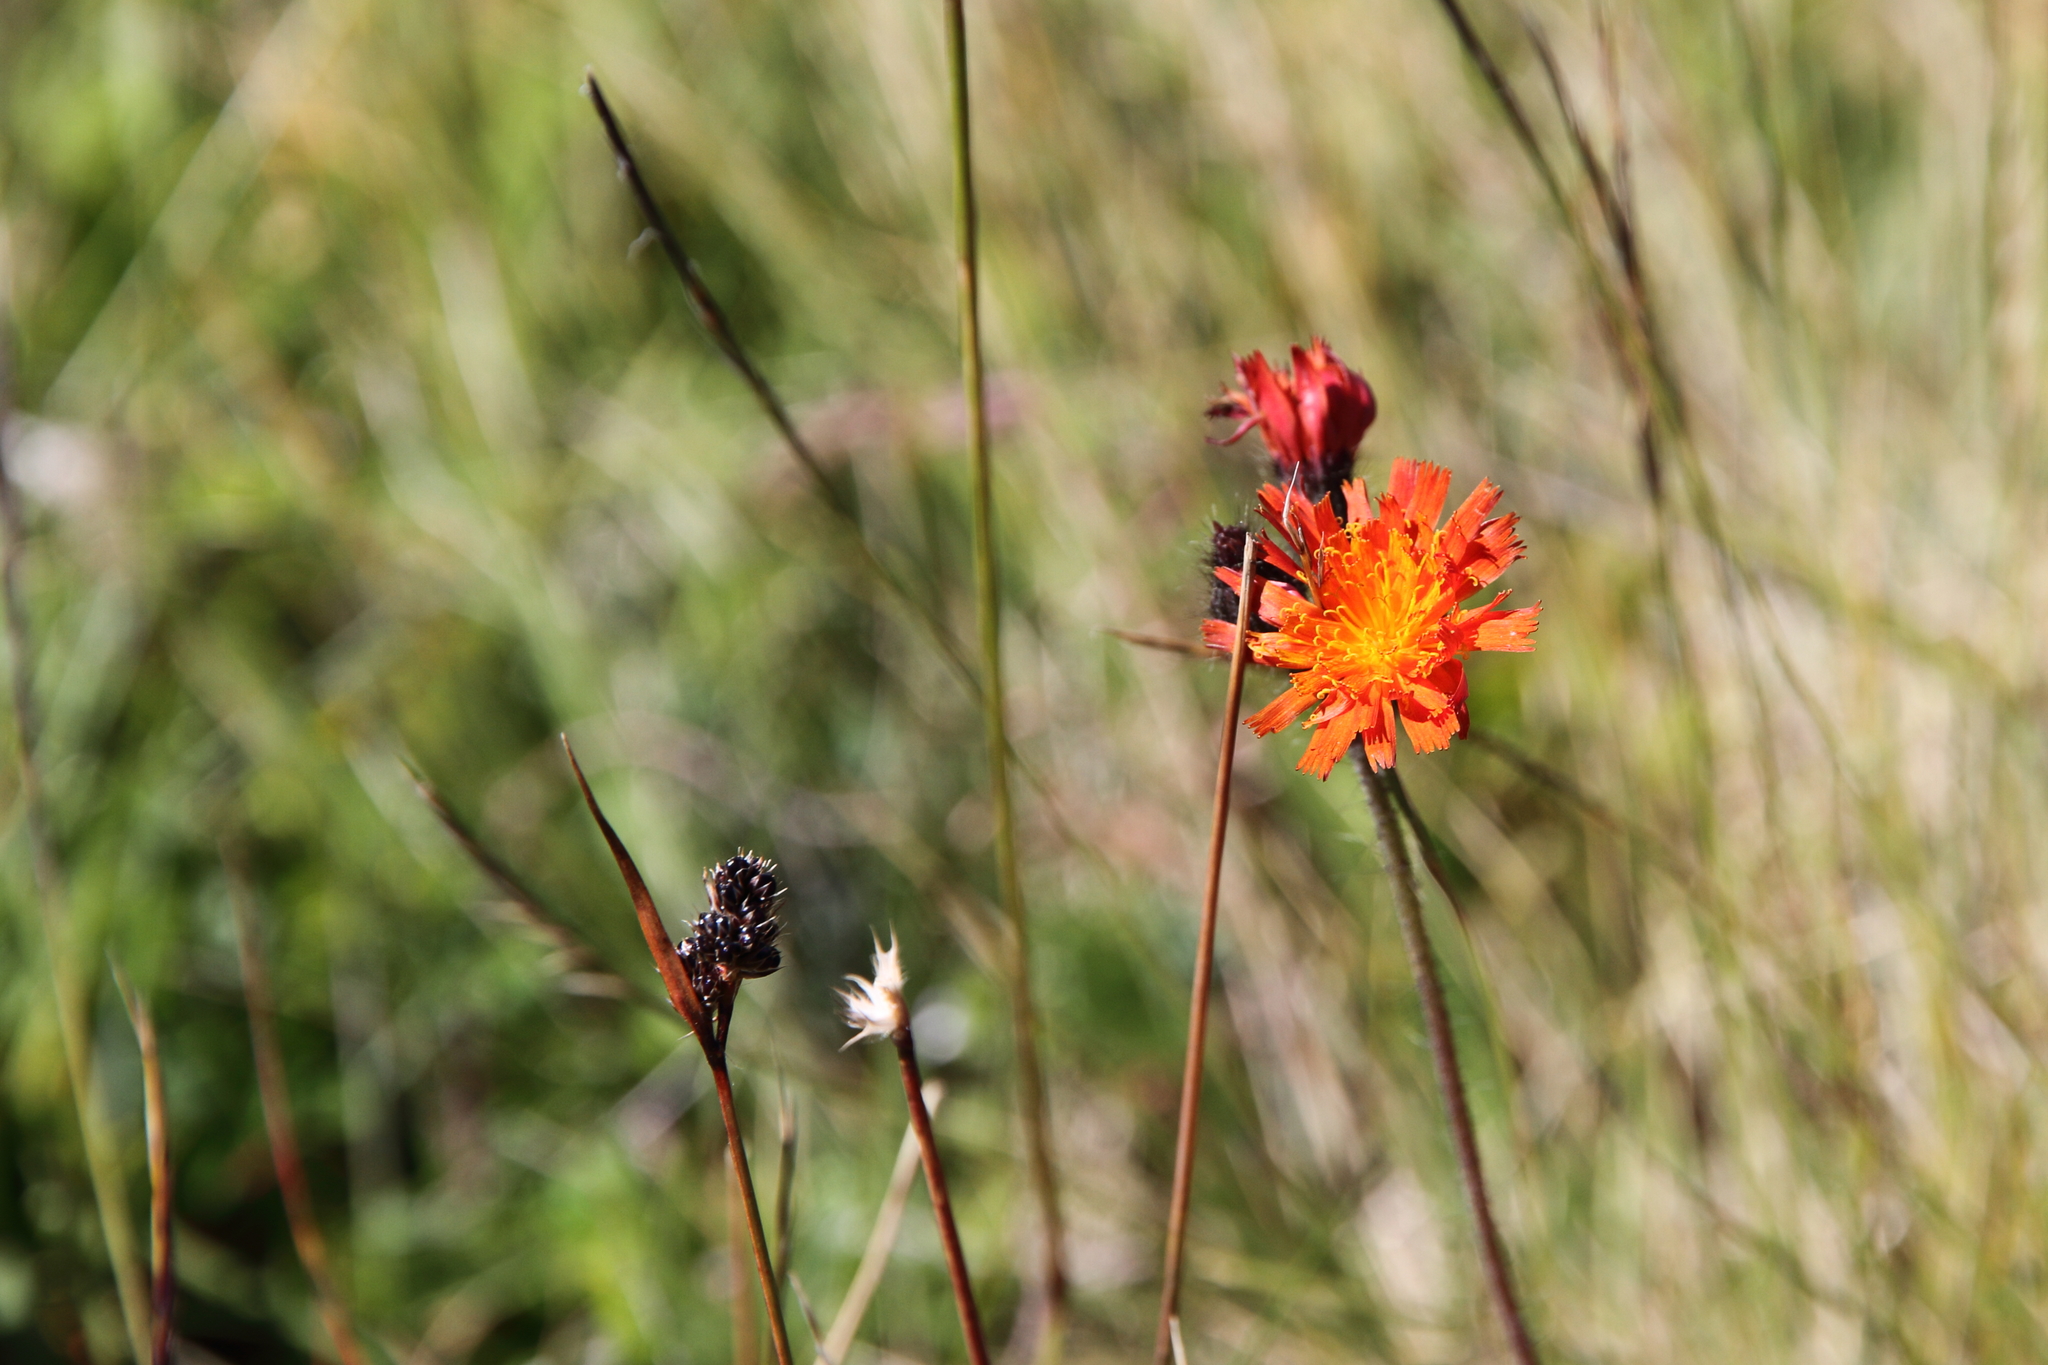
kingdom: Plantae
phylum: Tracheophyta
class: Magnoliopsida
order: Asterales
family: Asteraceae
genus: Pilosella
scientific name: Pilosella aurantiaca
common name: Fox-and-cubs
